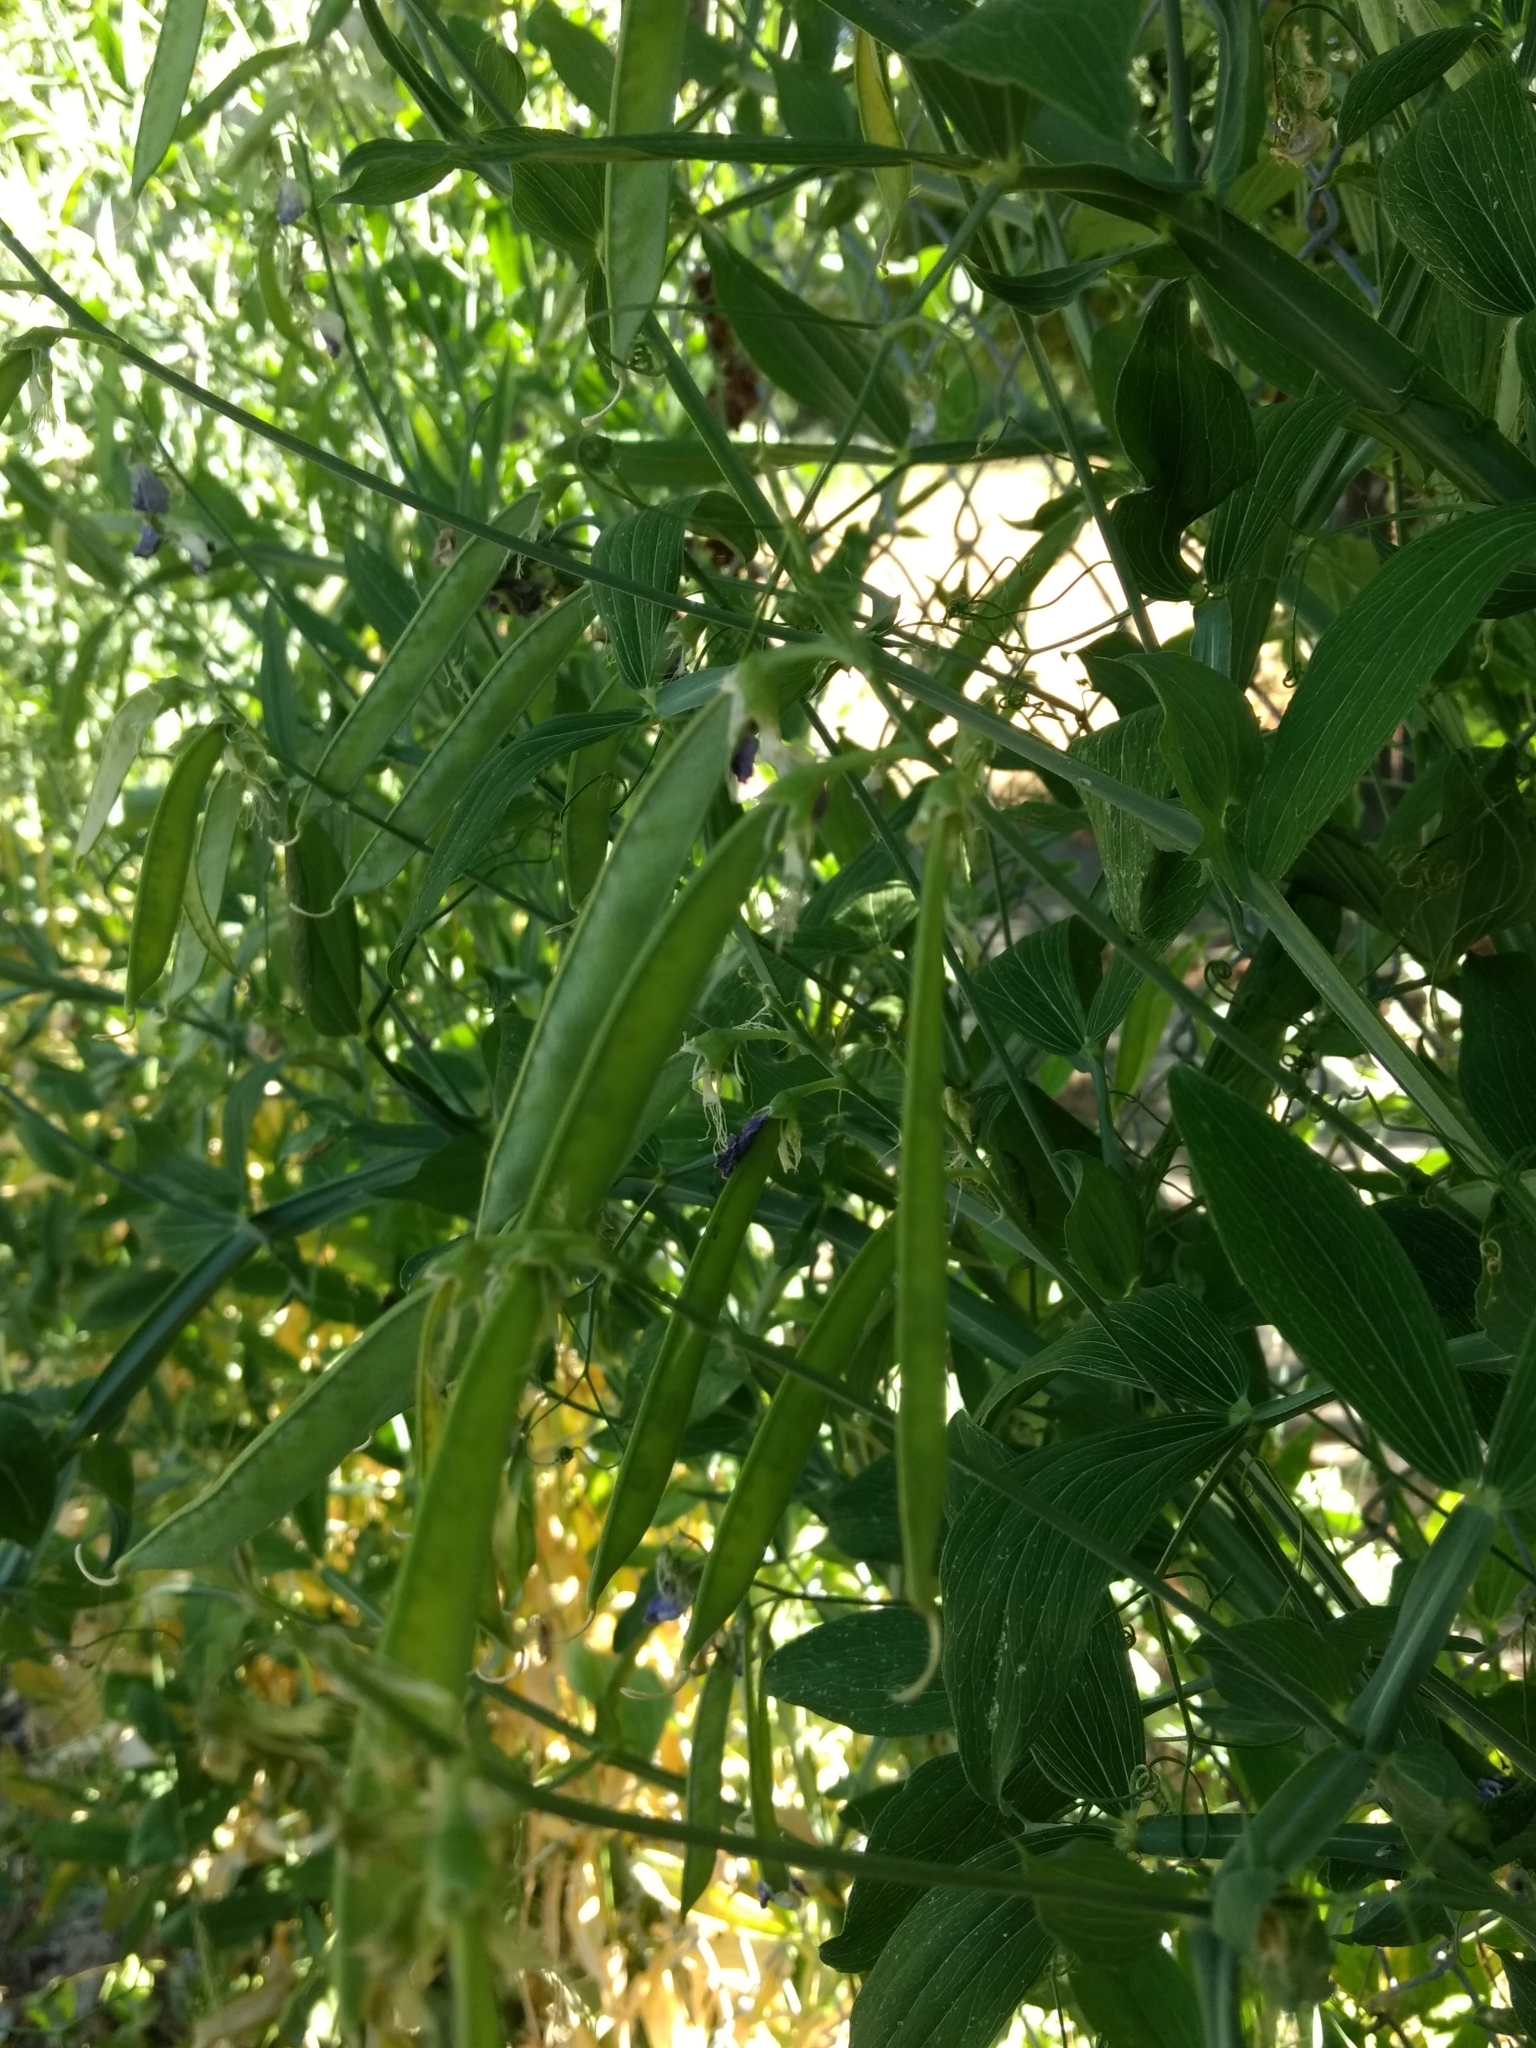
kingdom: Plantae
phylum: Tracheophyta
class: Magnoliopsida
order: Fabales
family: Fabaceae
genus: Lathyrus
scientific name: Lathyrus latifolius
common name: Perennial pea
